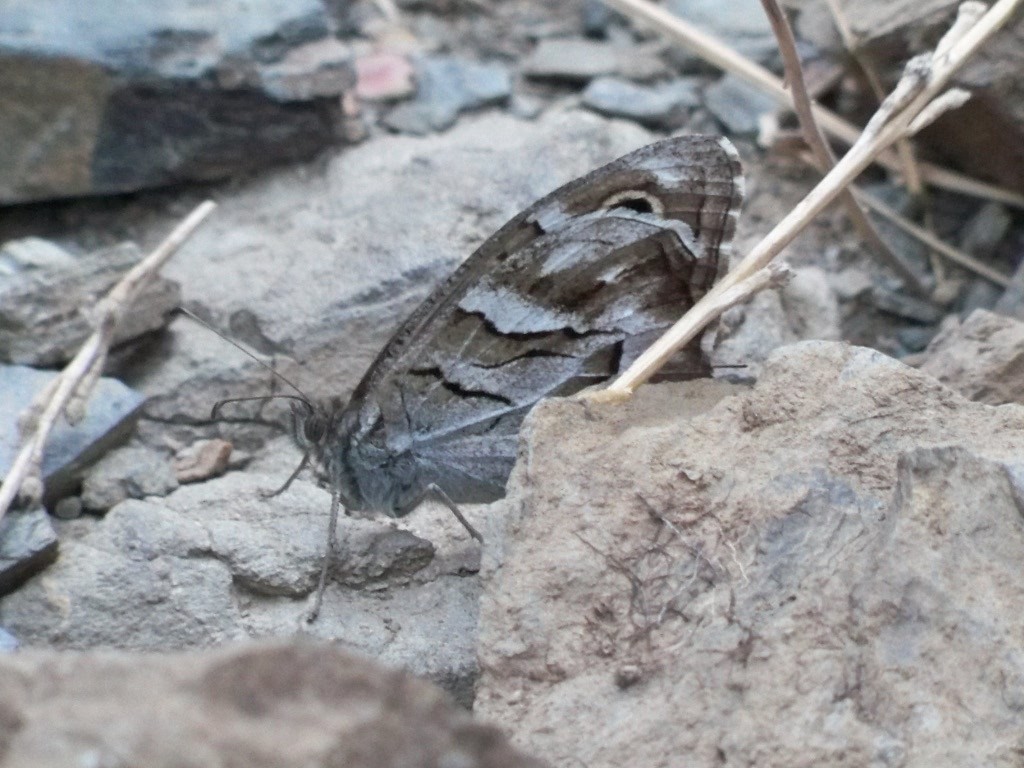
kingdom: Animalia
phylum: Arthropoda
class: Insecta
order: Lepidoptera
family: Nymphalidae
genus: Hipparchia
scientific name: Hipparchia fidia
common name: Striped grayling
